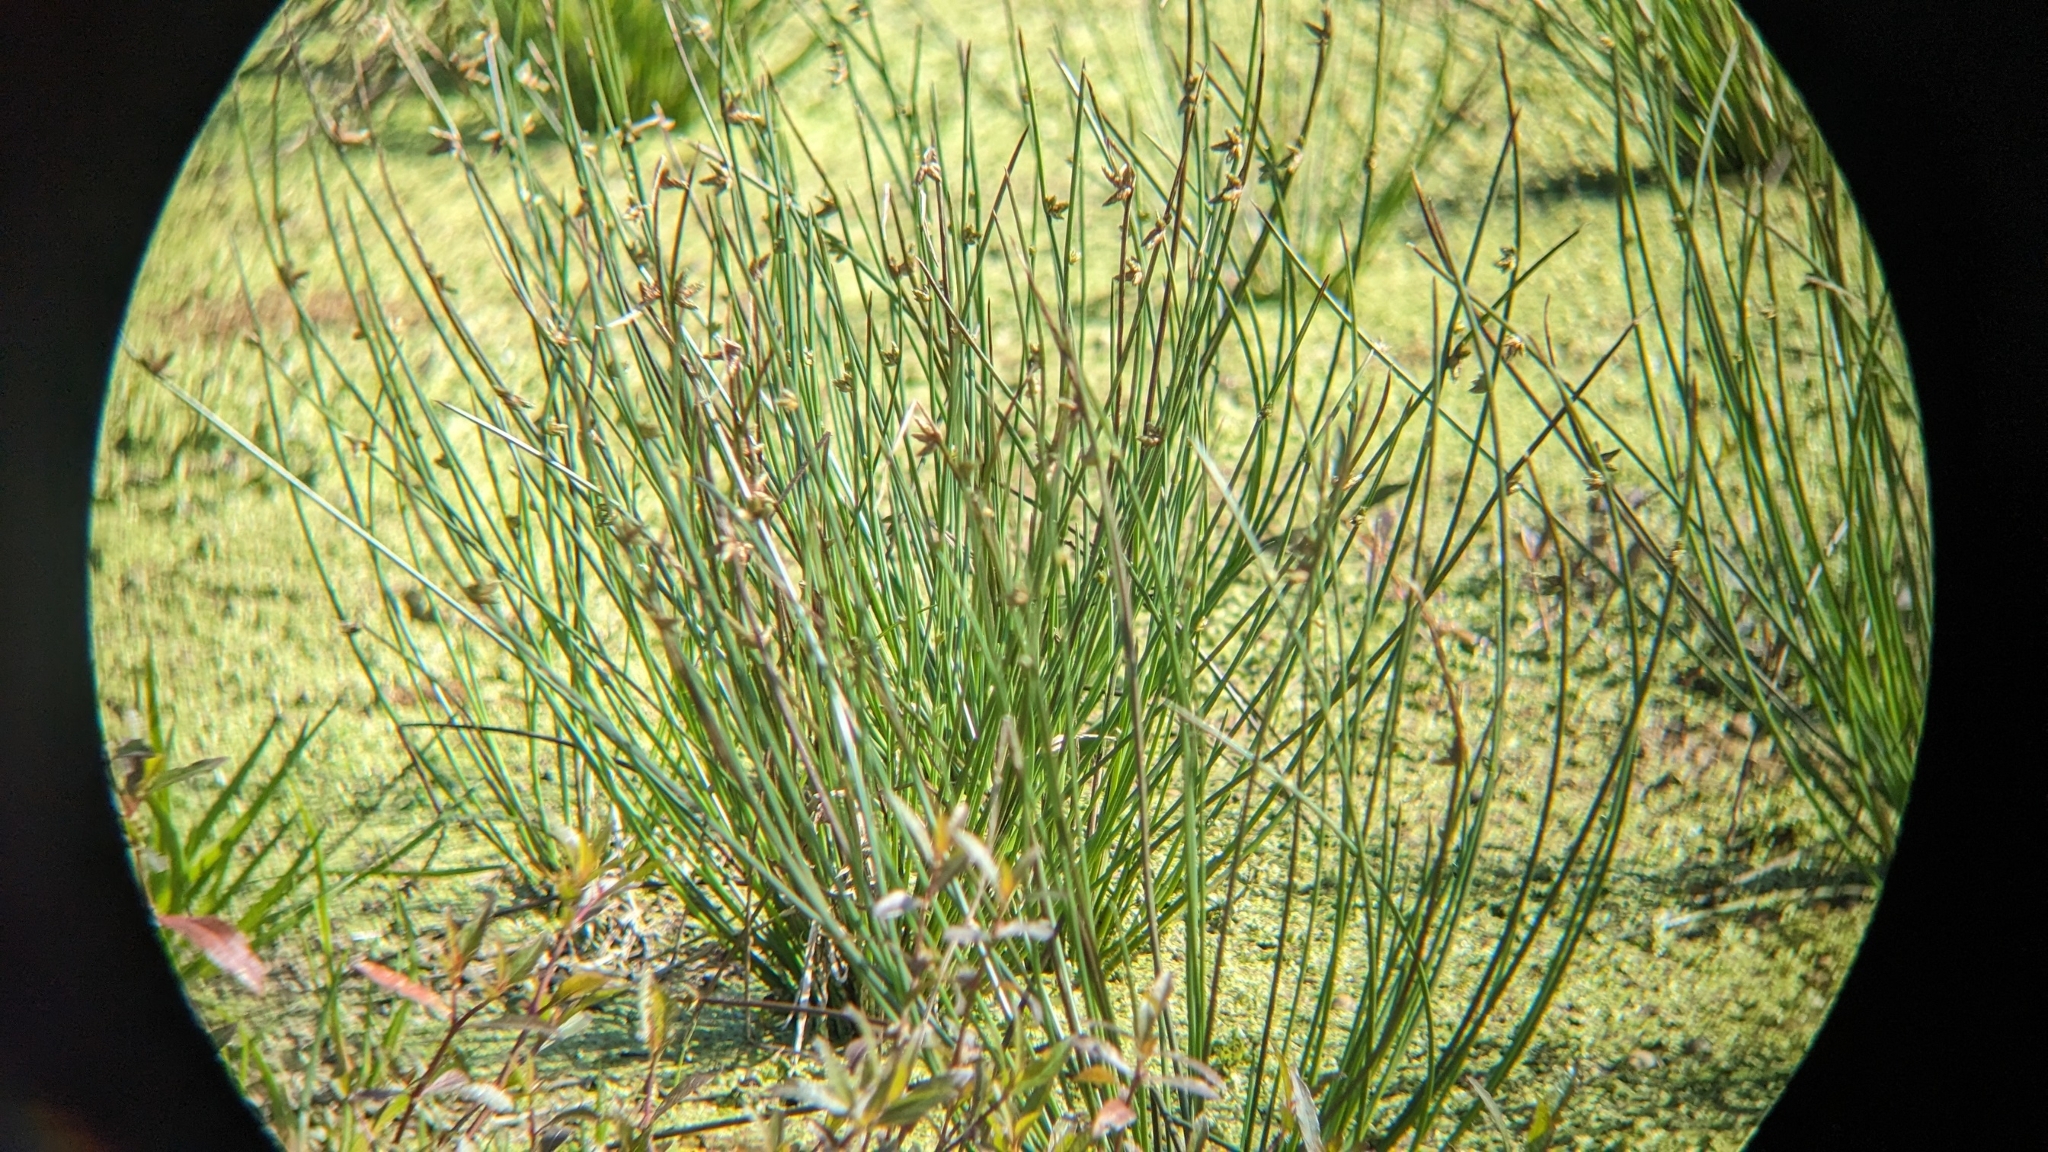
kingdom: Plantae
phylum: Tracheophyta
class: Liliopsida
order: Poales
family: Cyperaceae
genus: Schoenoplectiella
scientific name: Schoenoplectiella juncoides
